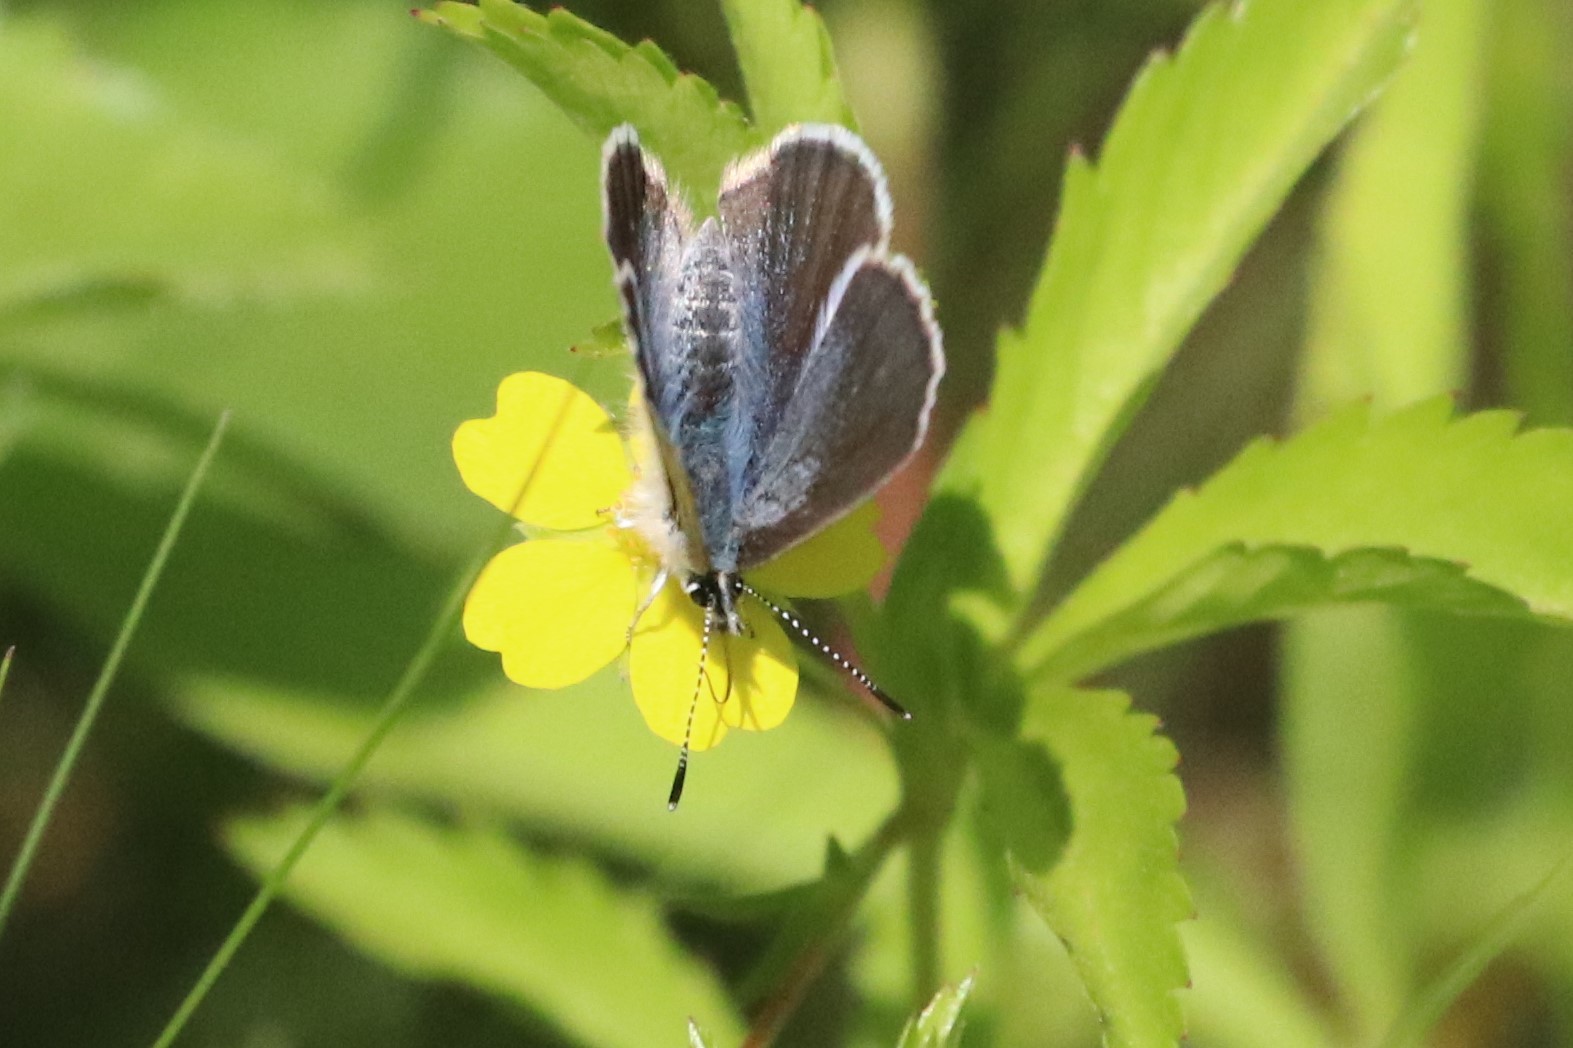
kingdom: Animalia
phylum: Arthropoda
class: Insecta
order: Lepidoptera
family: Lycaenidae
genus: Glaucopsyche
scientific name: Glaucopsyche lygdamus
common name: Silvery blue
